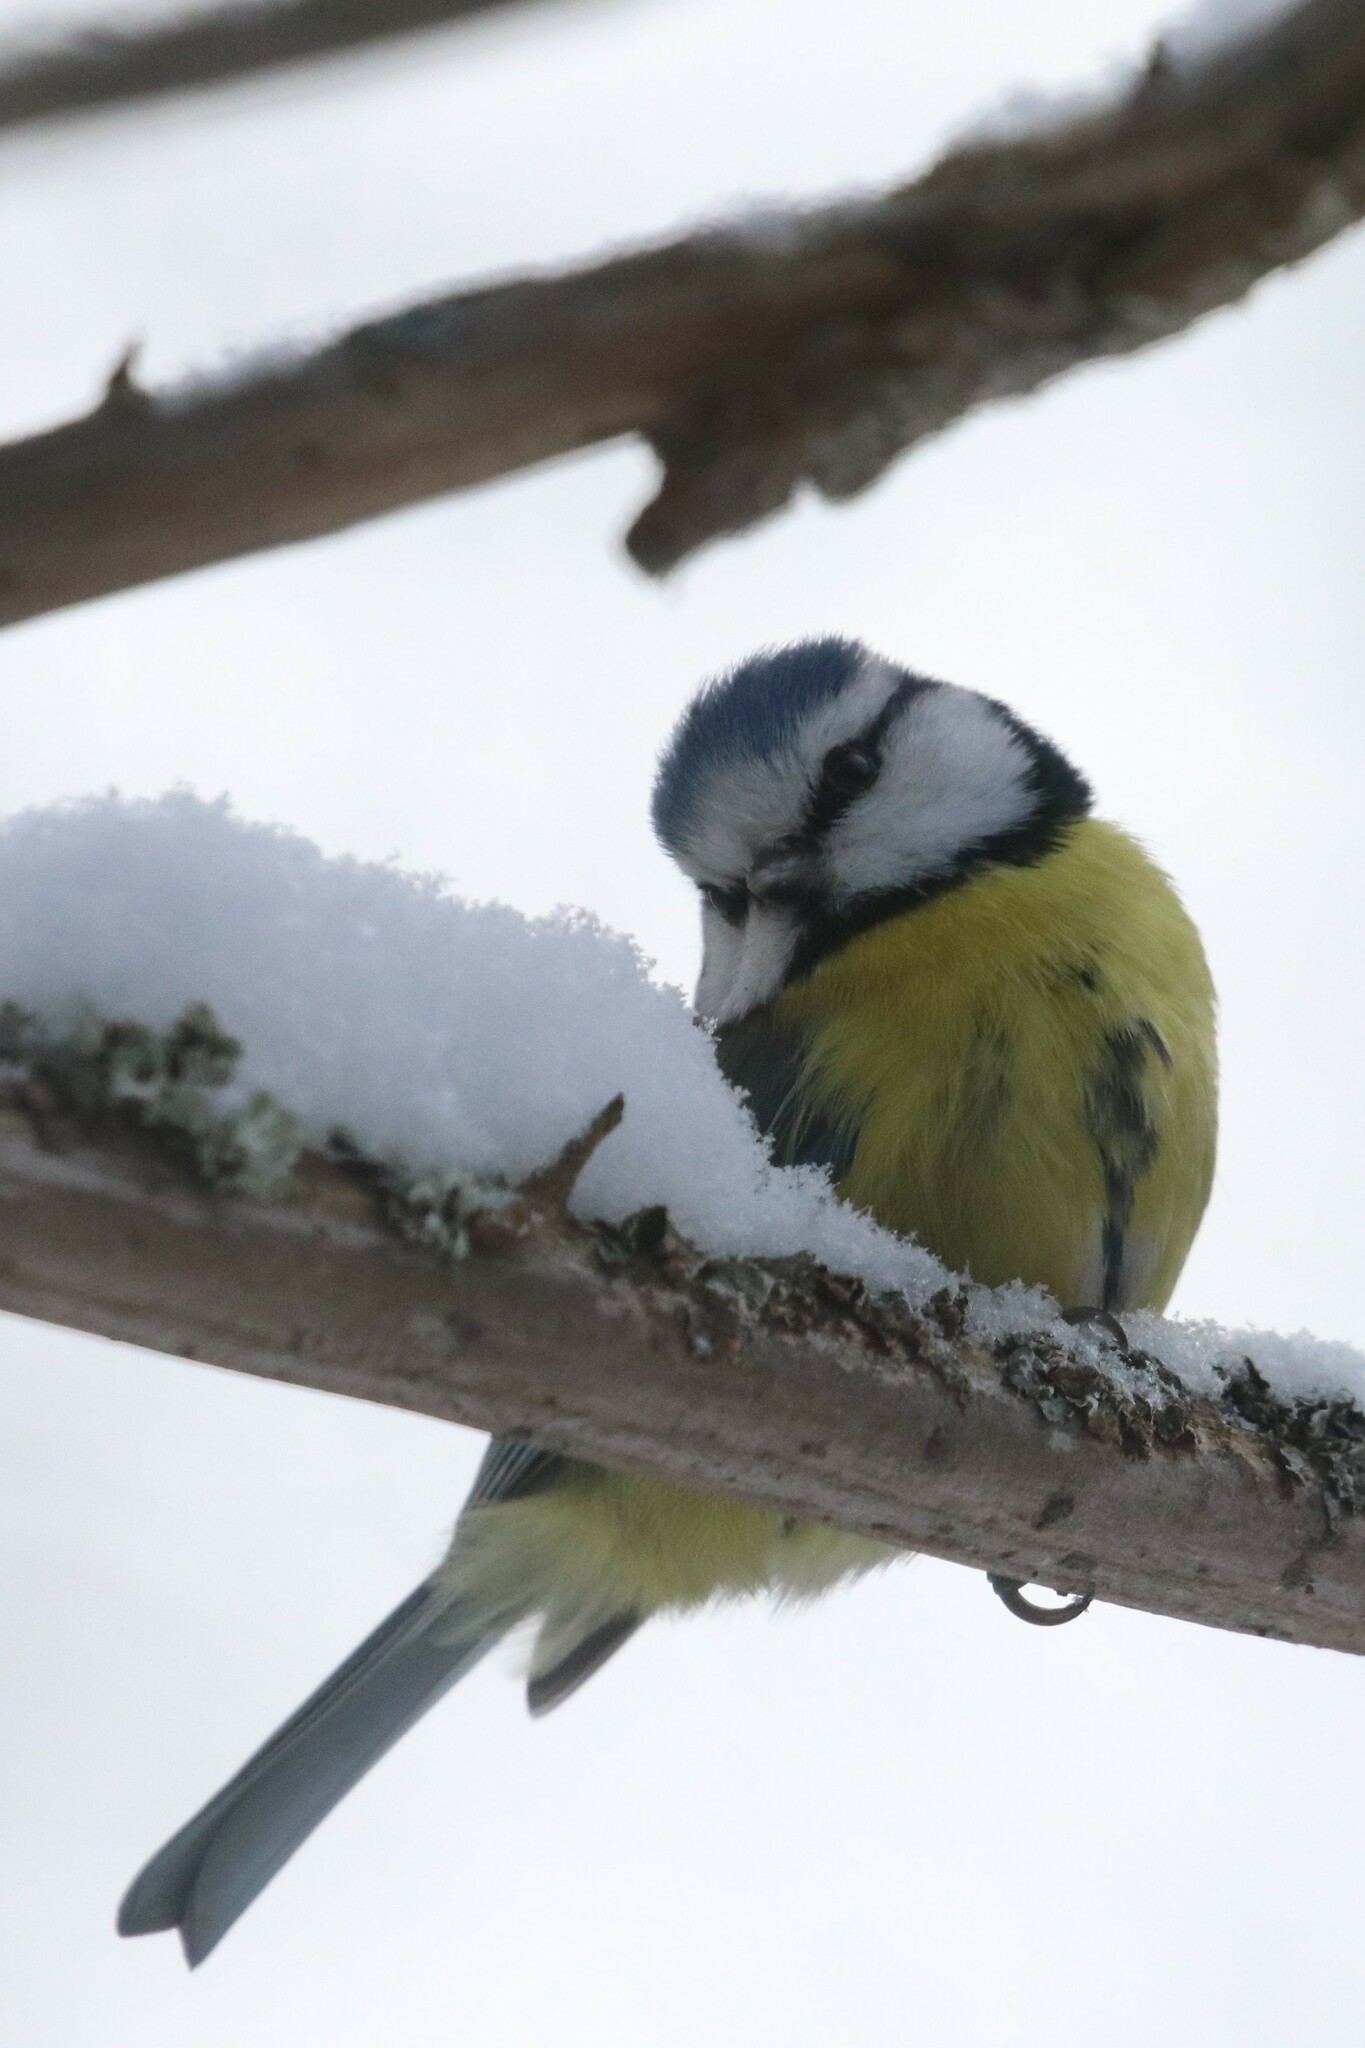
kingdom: Animalia
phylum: Chordata
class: Aves
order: Passeriformes
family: Paridae
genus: Cyanistes
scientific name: Cyanistes caeruleus
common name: Eurasian blue tit
